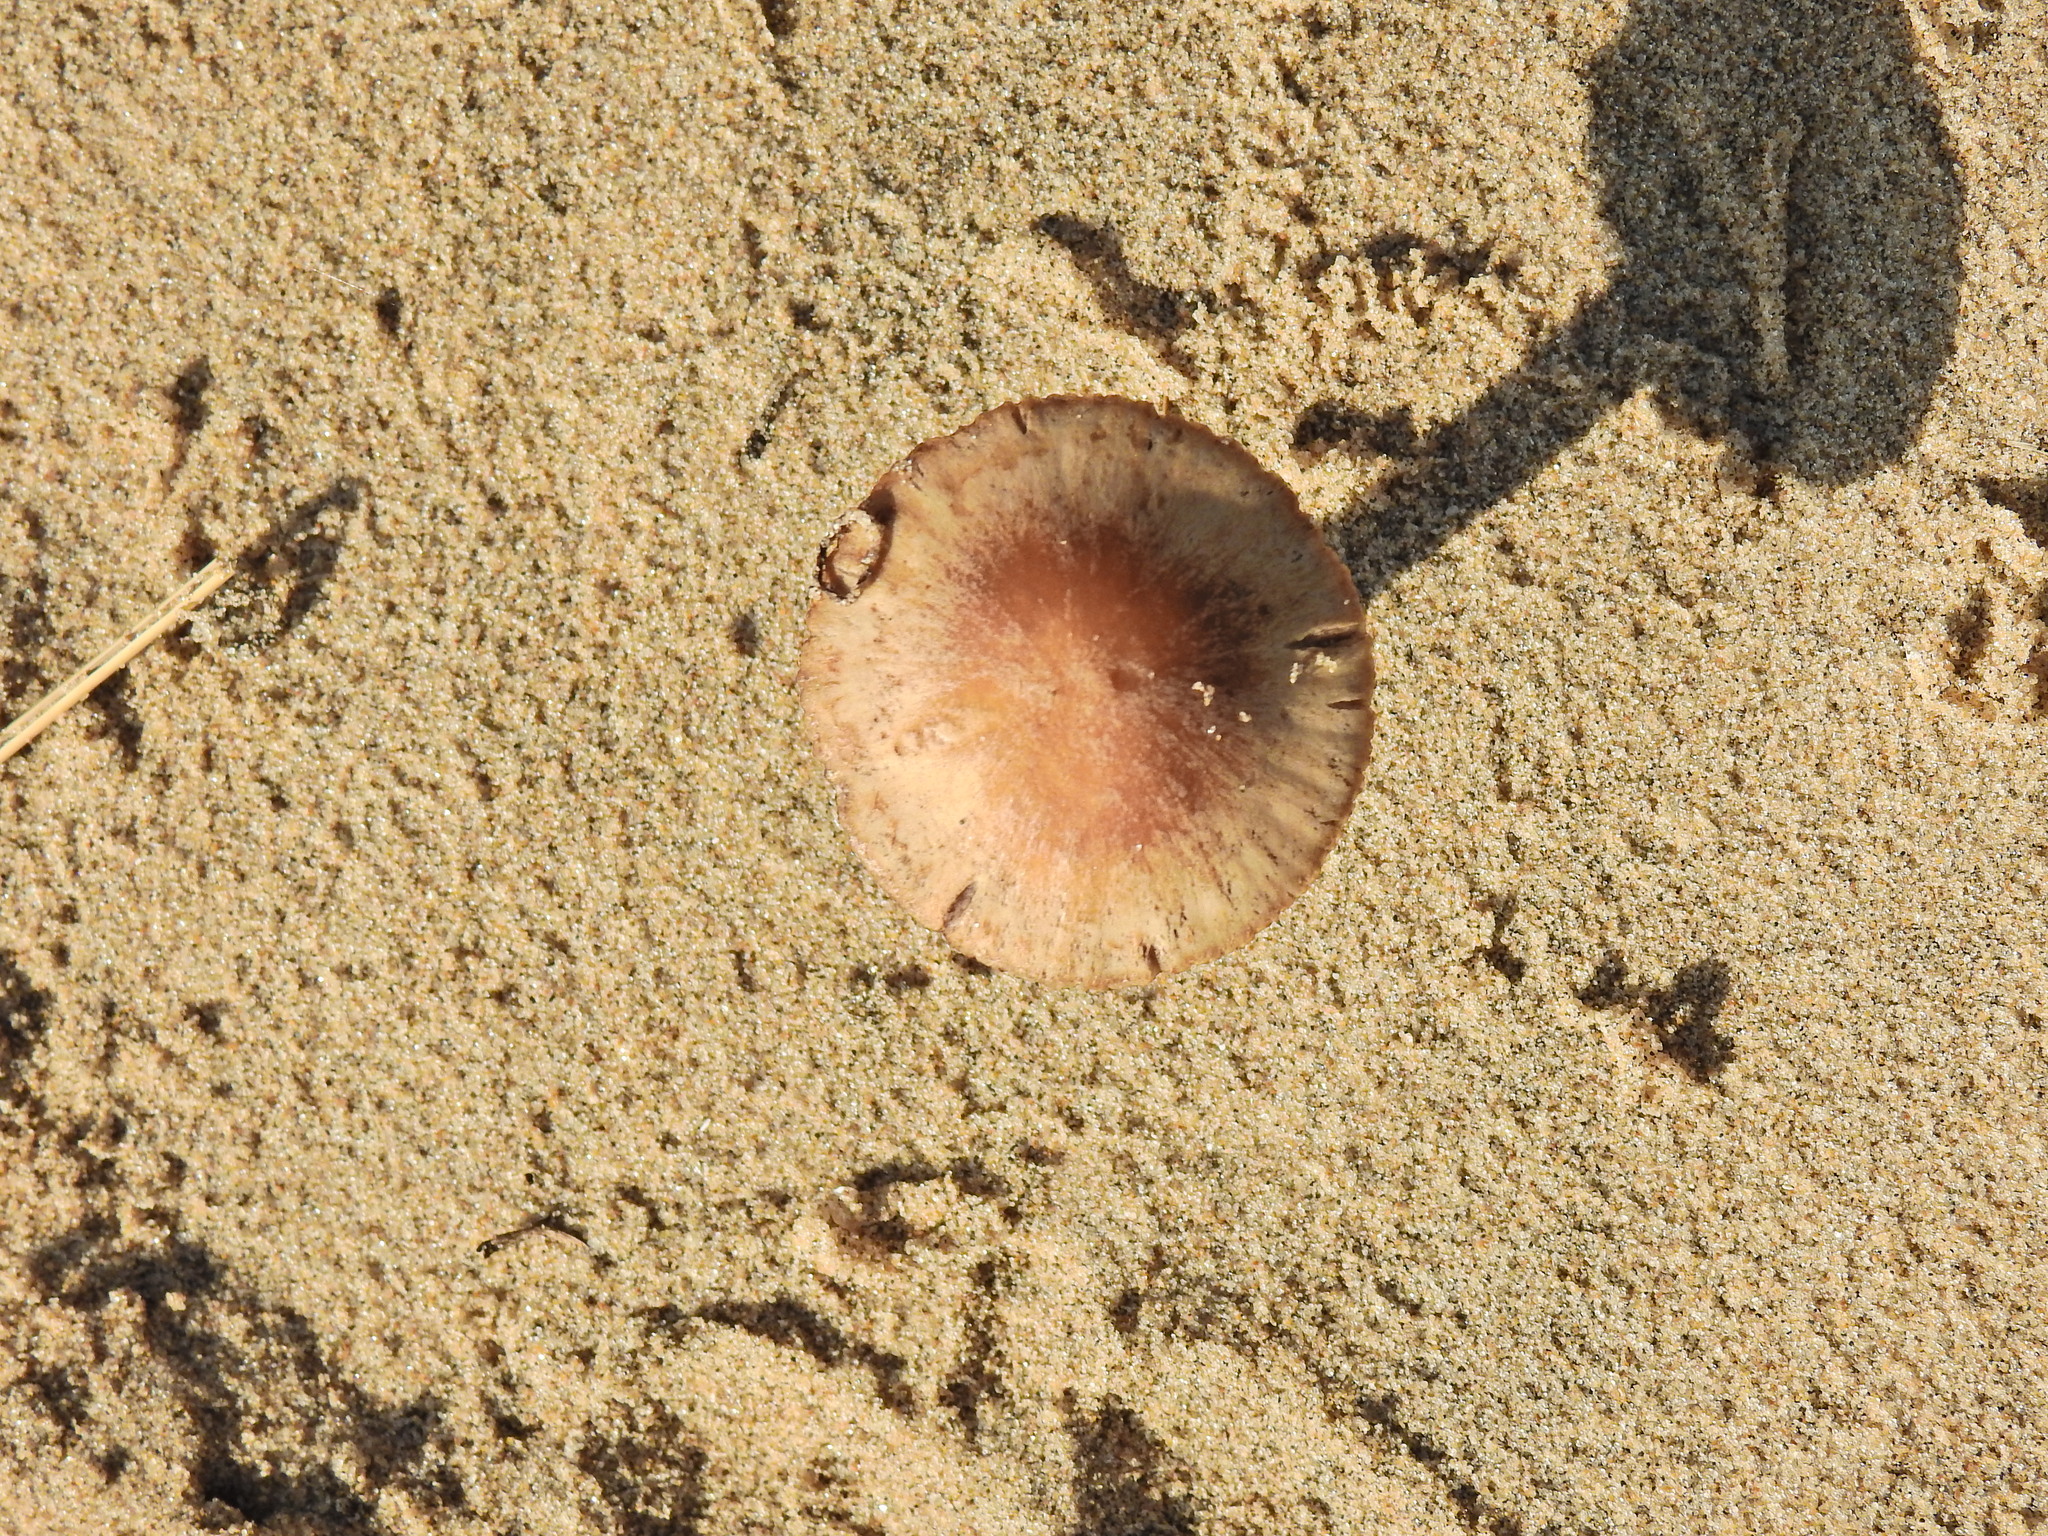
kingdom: Fungi
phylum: Basidiomycota
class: Agaricomycetes
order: Agaricales
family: Psathyrellaceae
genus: Psathyrella
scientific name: Psathyrella ammophila
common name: Dune brittlestem
